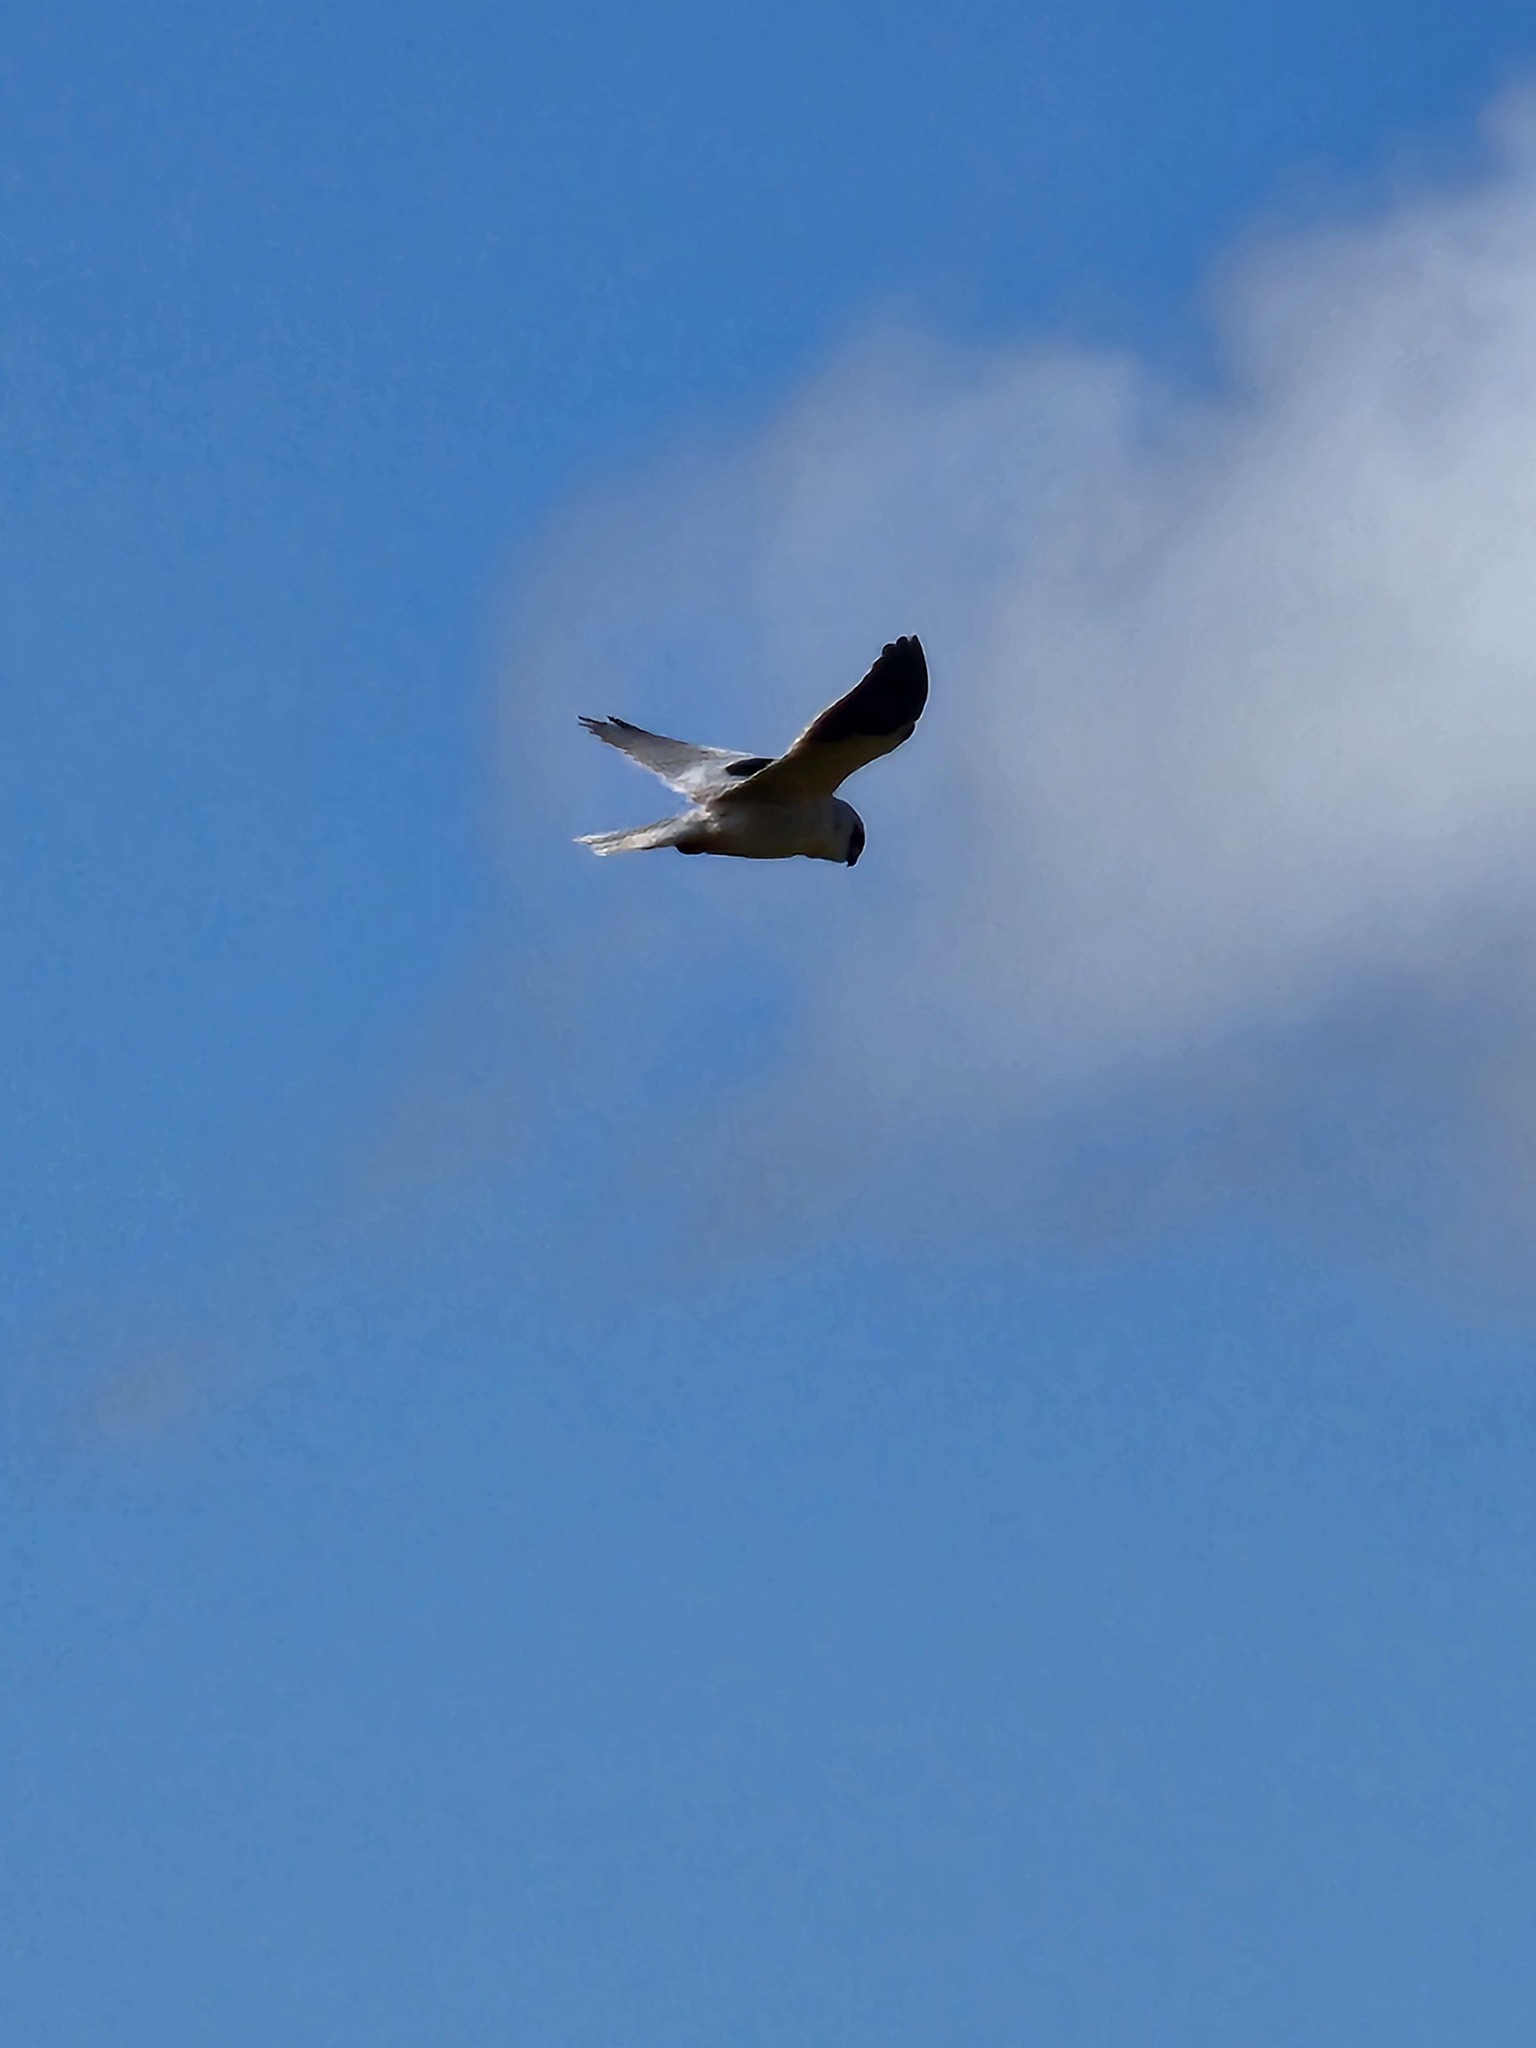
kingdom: Animalia
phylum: Chordata
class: Aves
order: Accipitriformes
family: Accipitridae
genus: Elanus
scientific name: Elanus axillaris
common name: Black-shouldered kite
